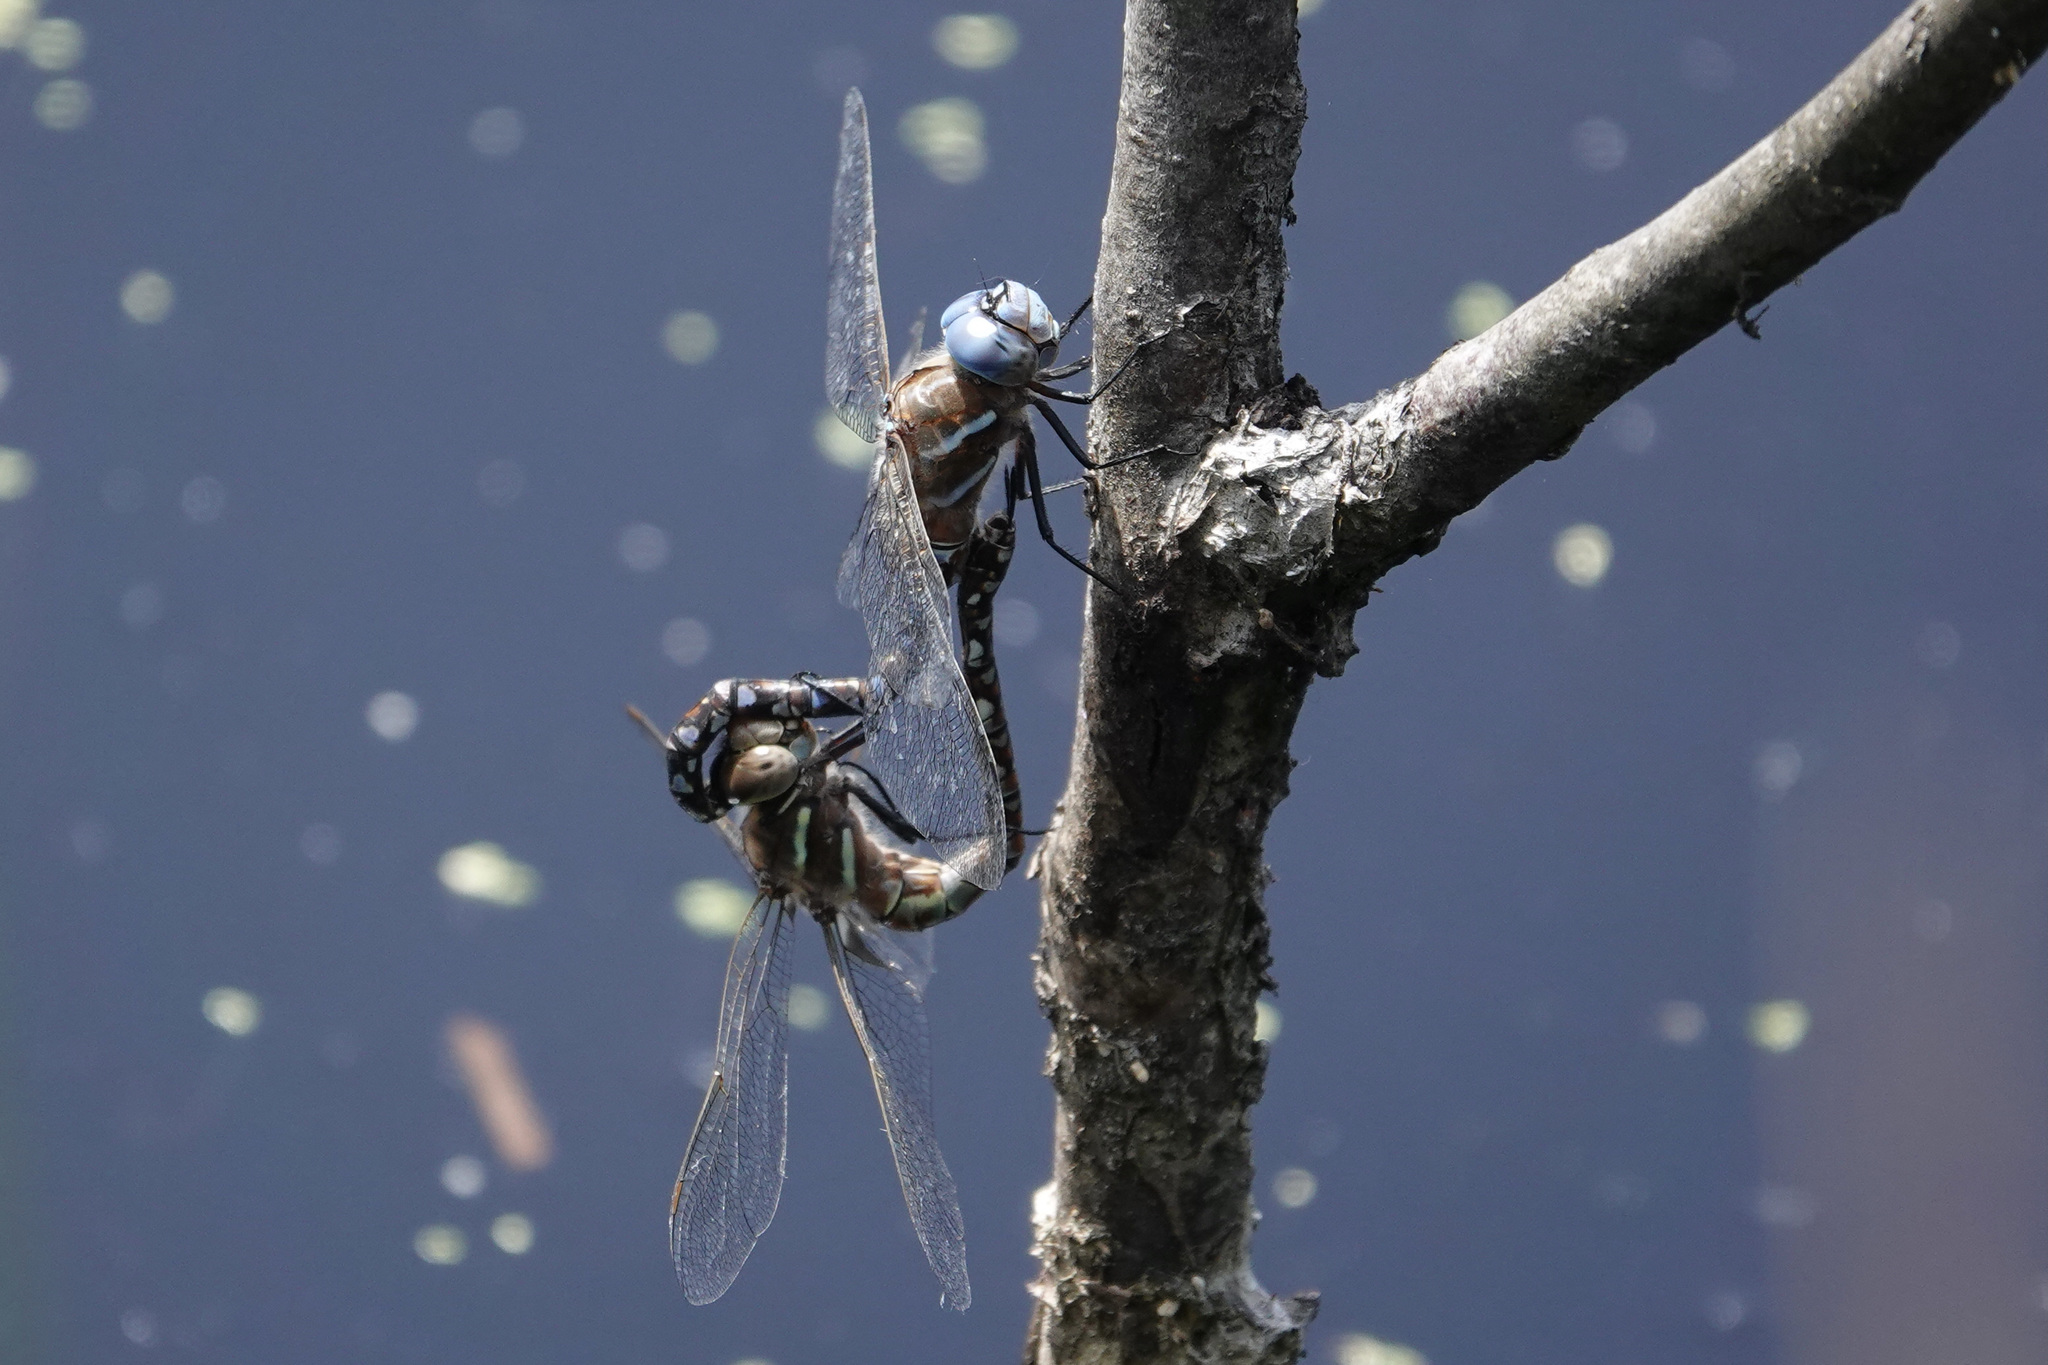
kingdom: Animalia
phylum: Arthropoda
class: Insecta
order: Odonata
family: Aeshnidae
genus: Rhionaeschna
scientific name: Rhionaeschna multicolor
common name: Blue-eyed darner
